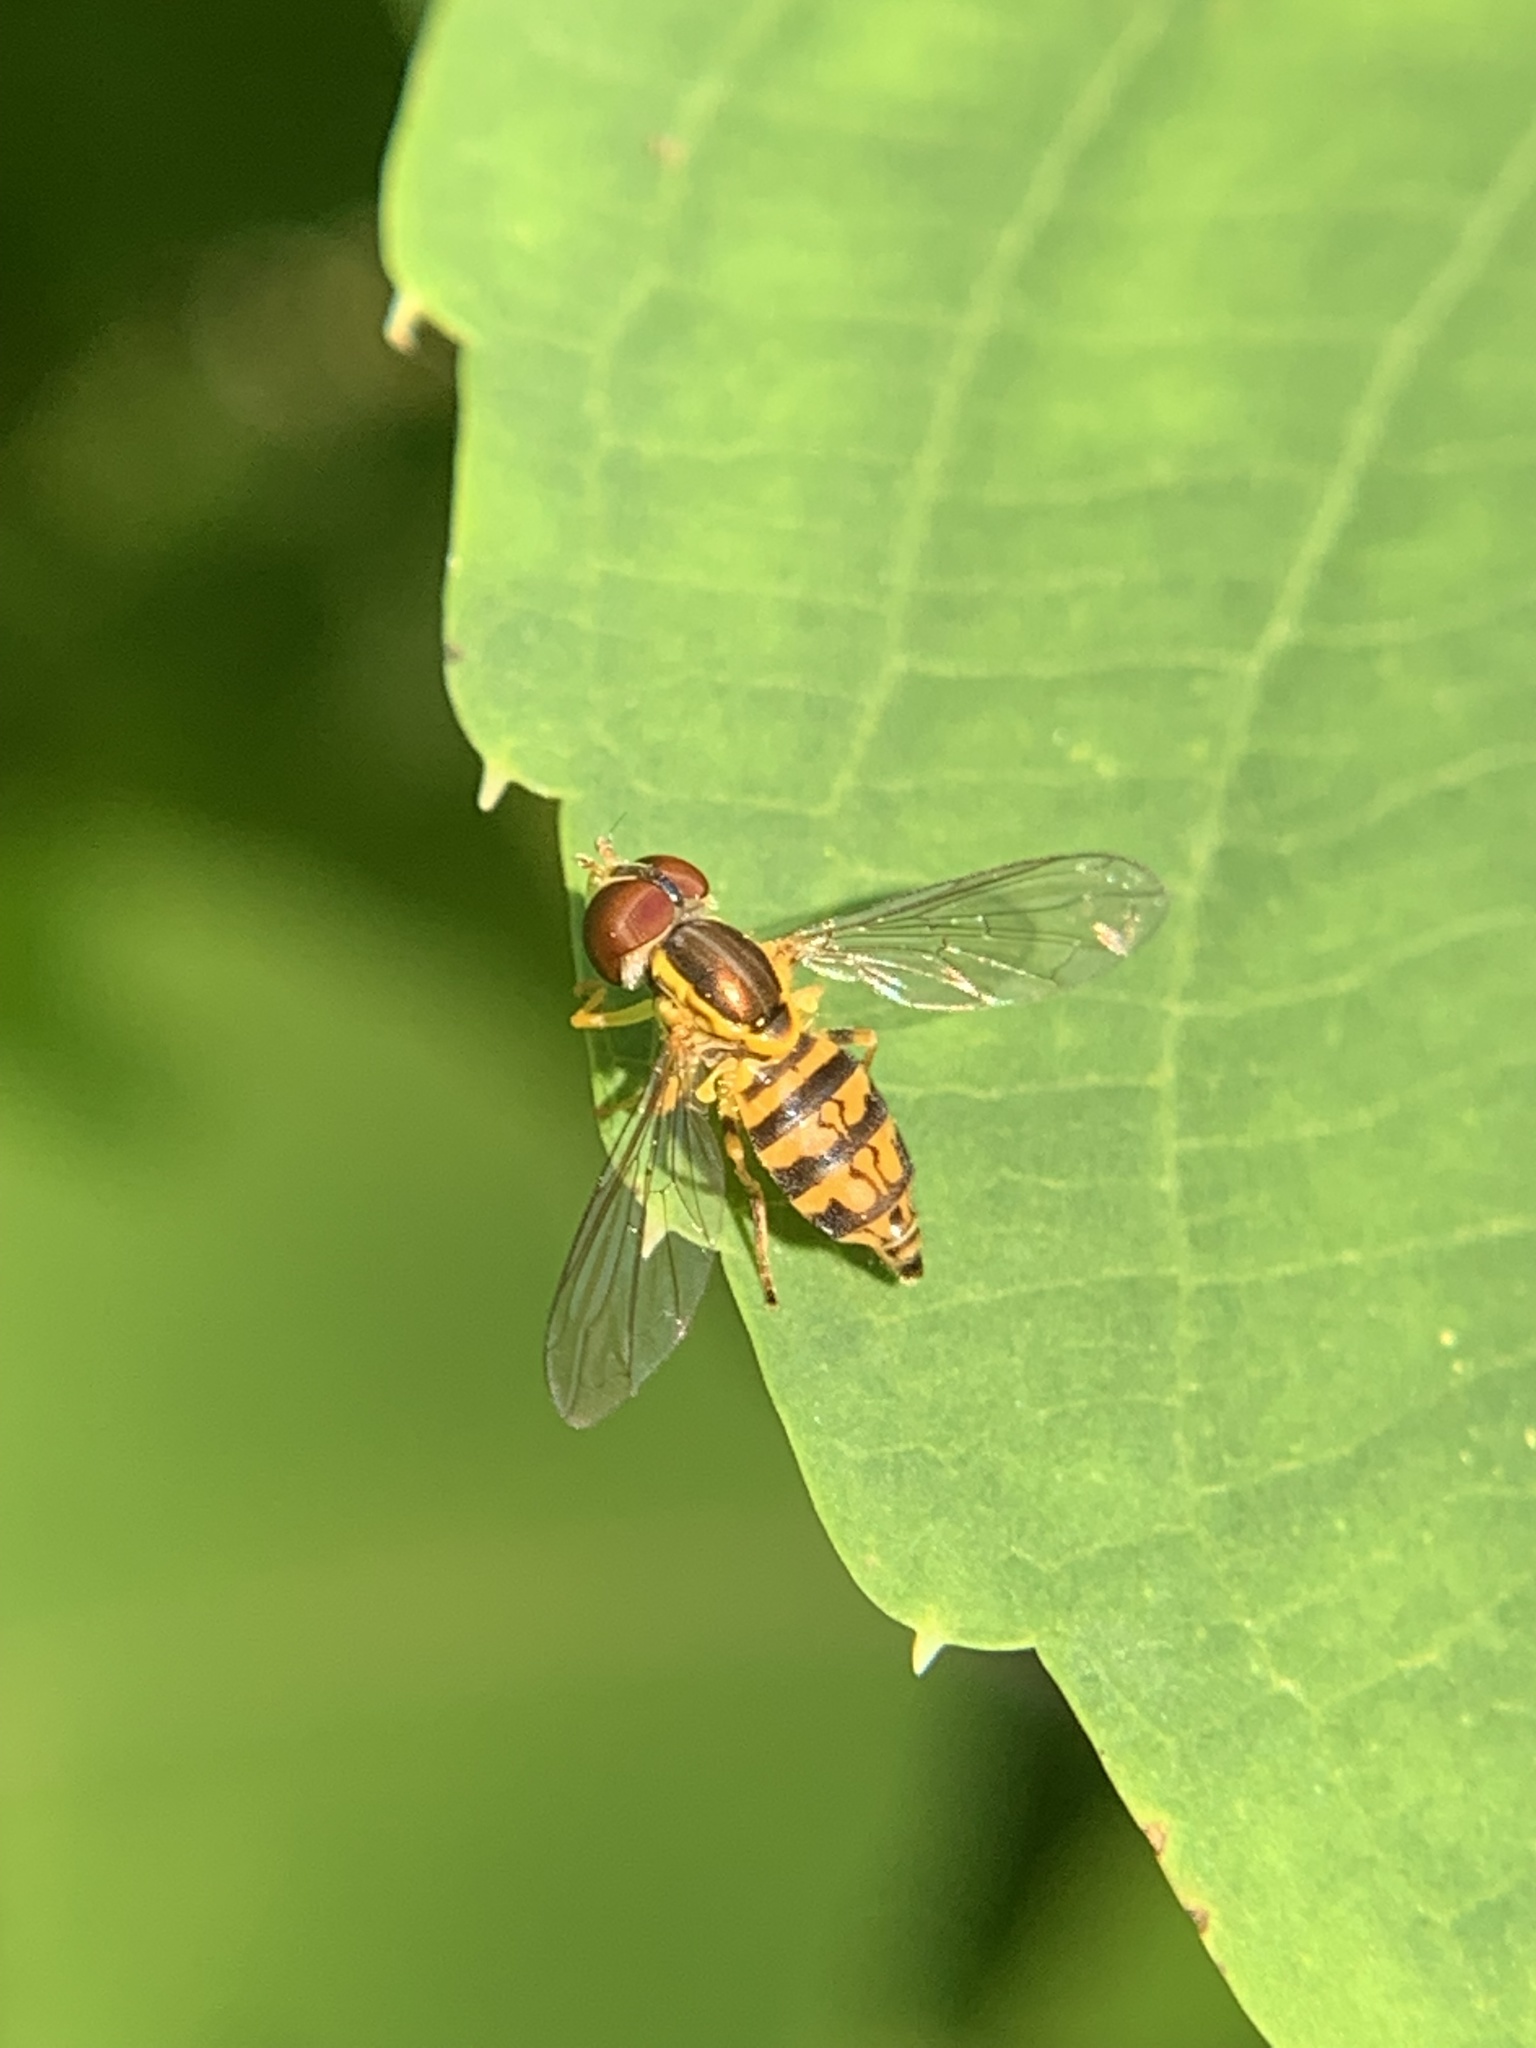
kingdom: Animalia
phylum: Arthropoda
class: Insecta
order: Diptera
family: Syrphidae
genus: Toxomerus
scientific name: Toxomerus geminatus
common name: Eastern calligrapher
